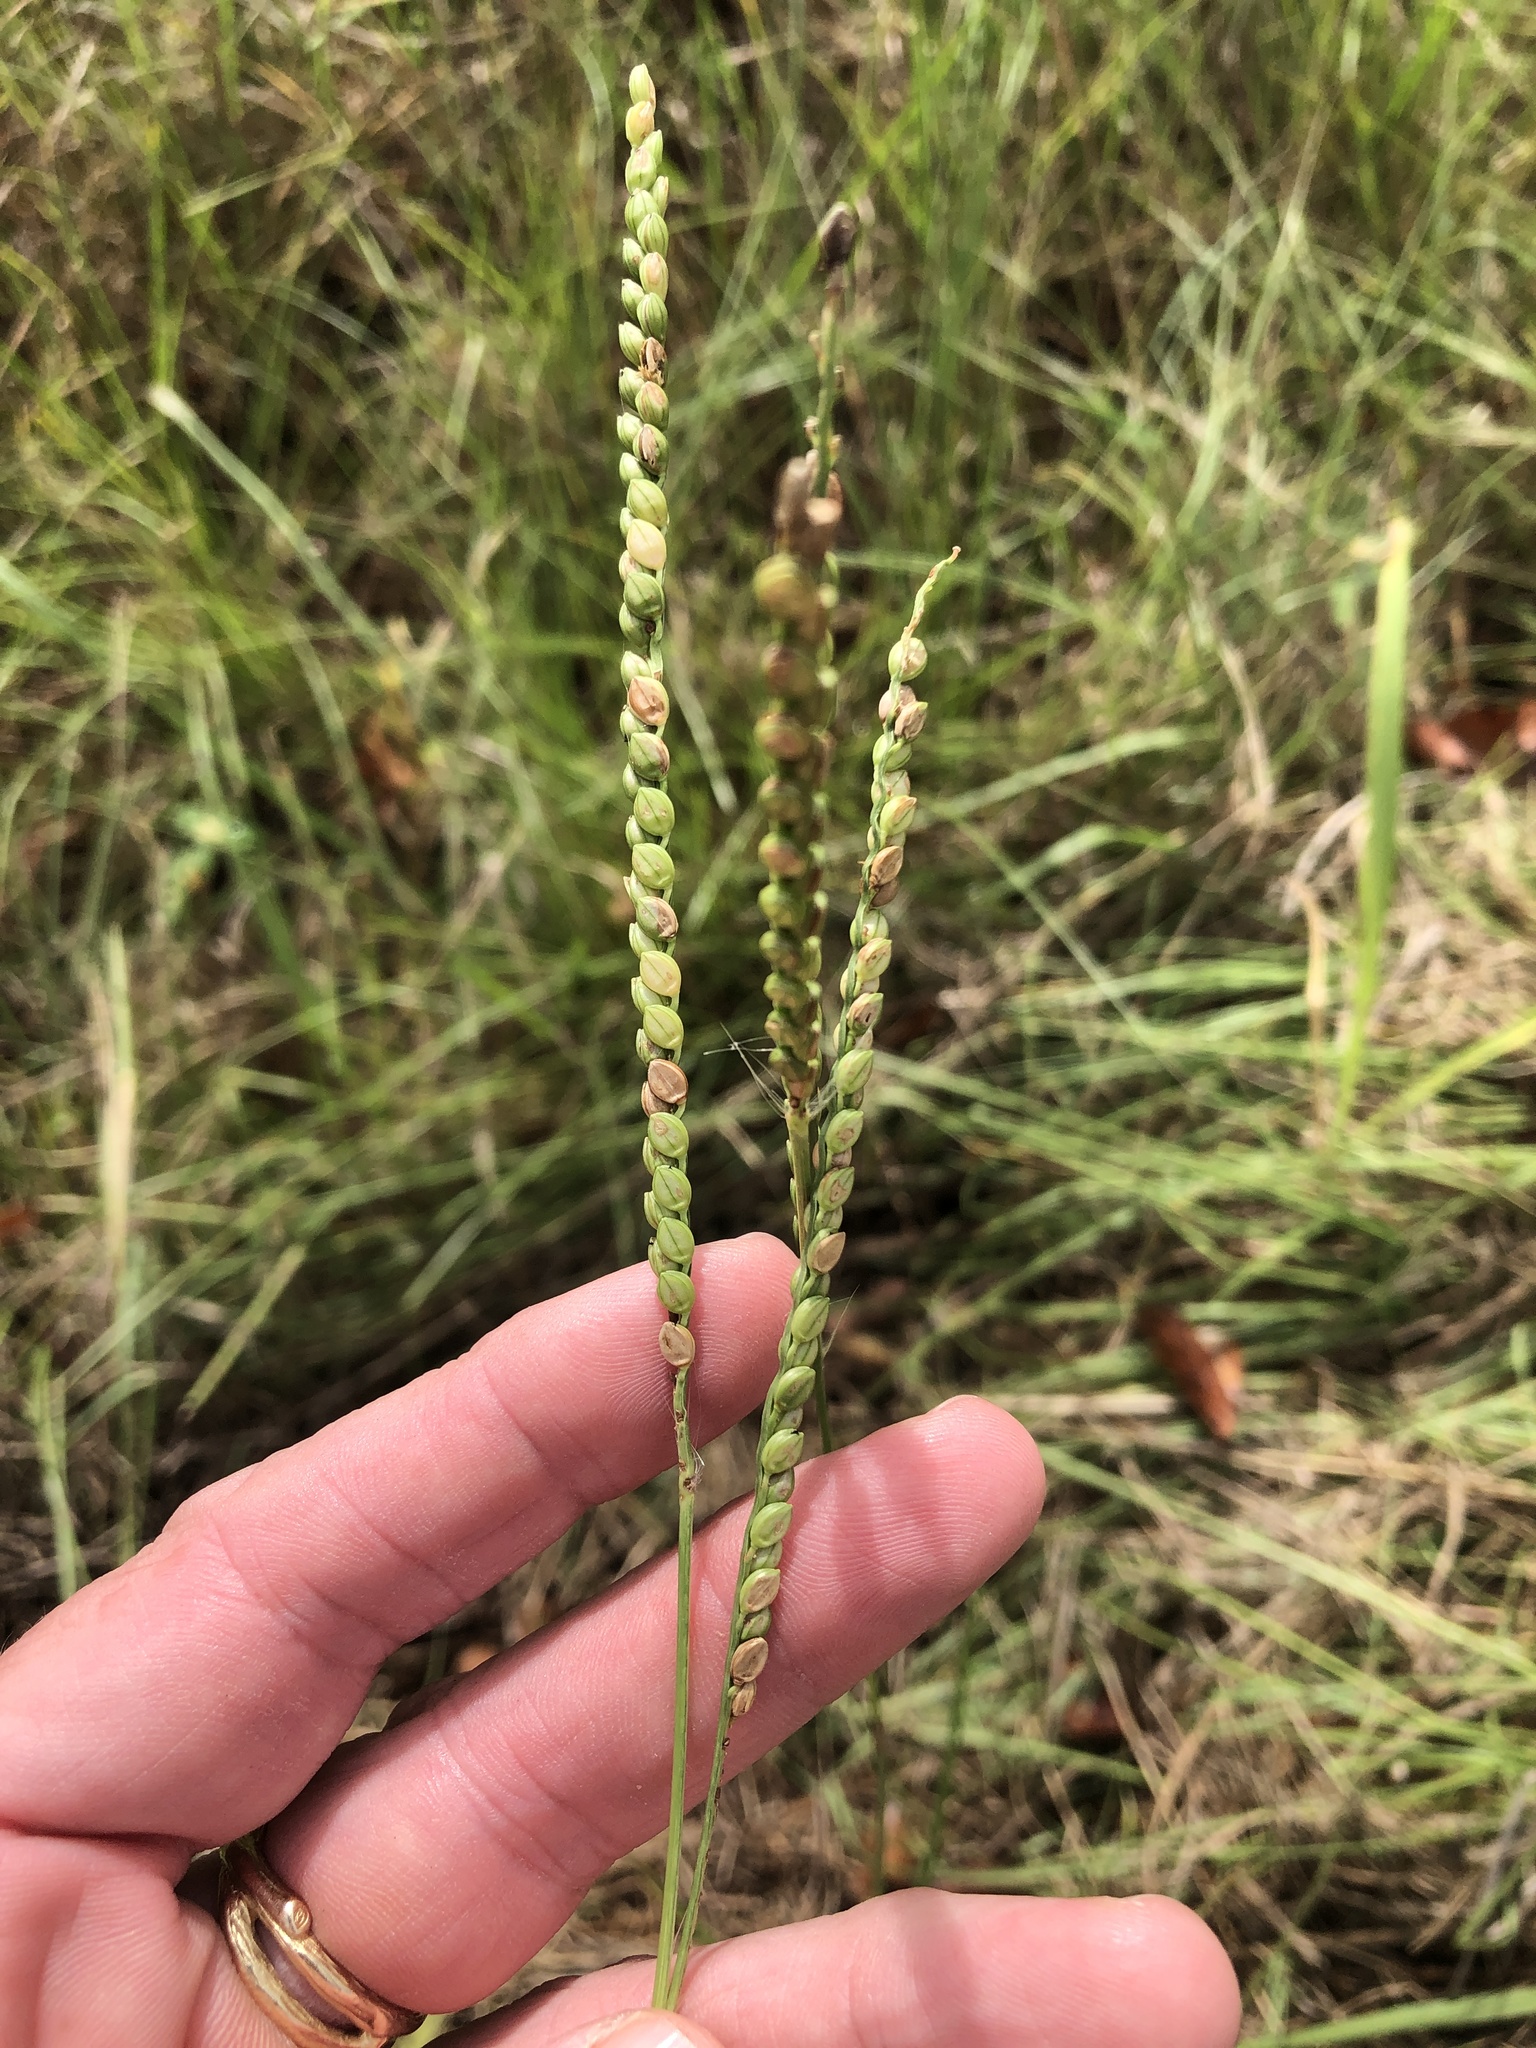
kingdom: Plantae
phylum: Tracheophyta
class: Liliopsida
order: Poales
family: Poaceae
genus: Paspalum
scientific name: Paspalum floridanum
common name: Florida paspalum
